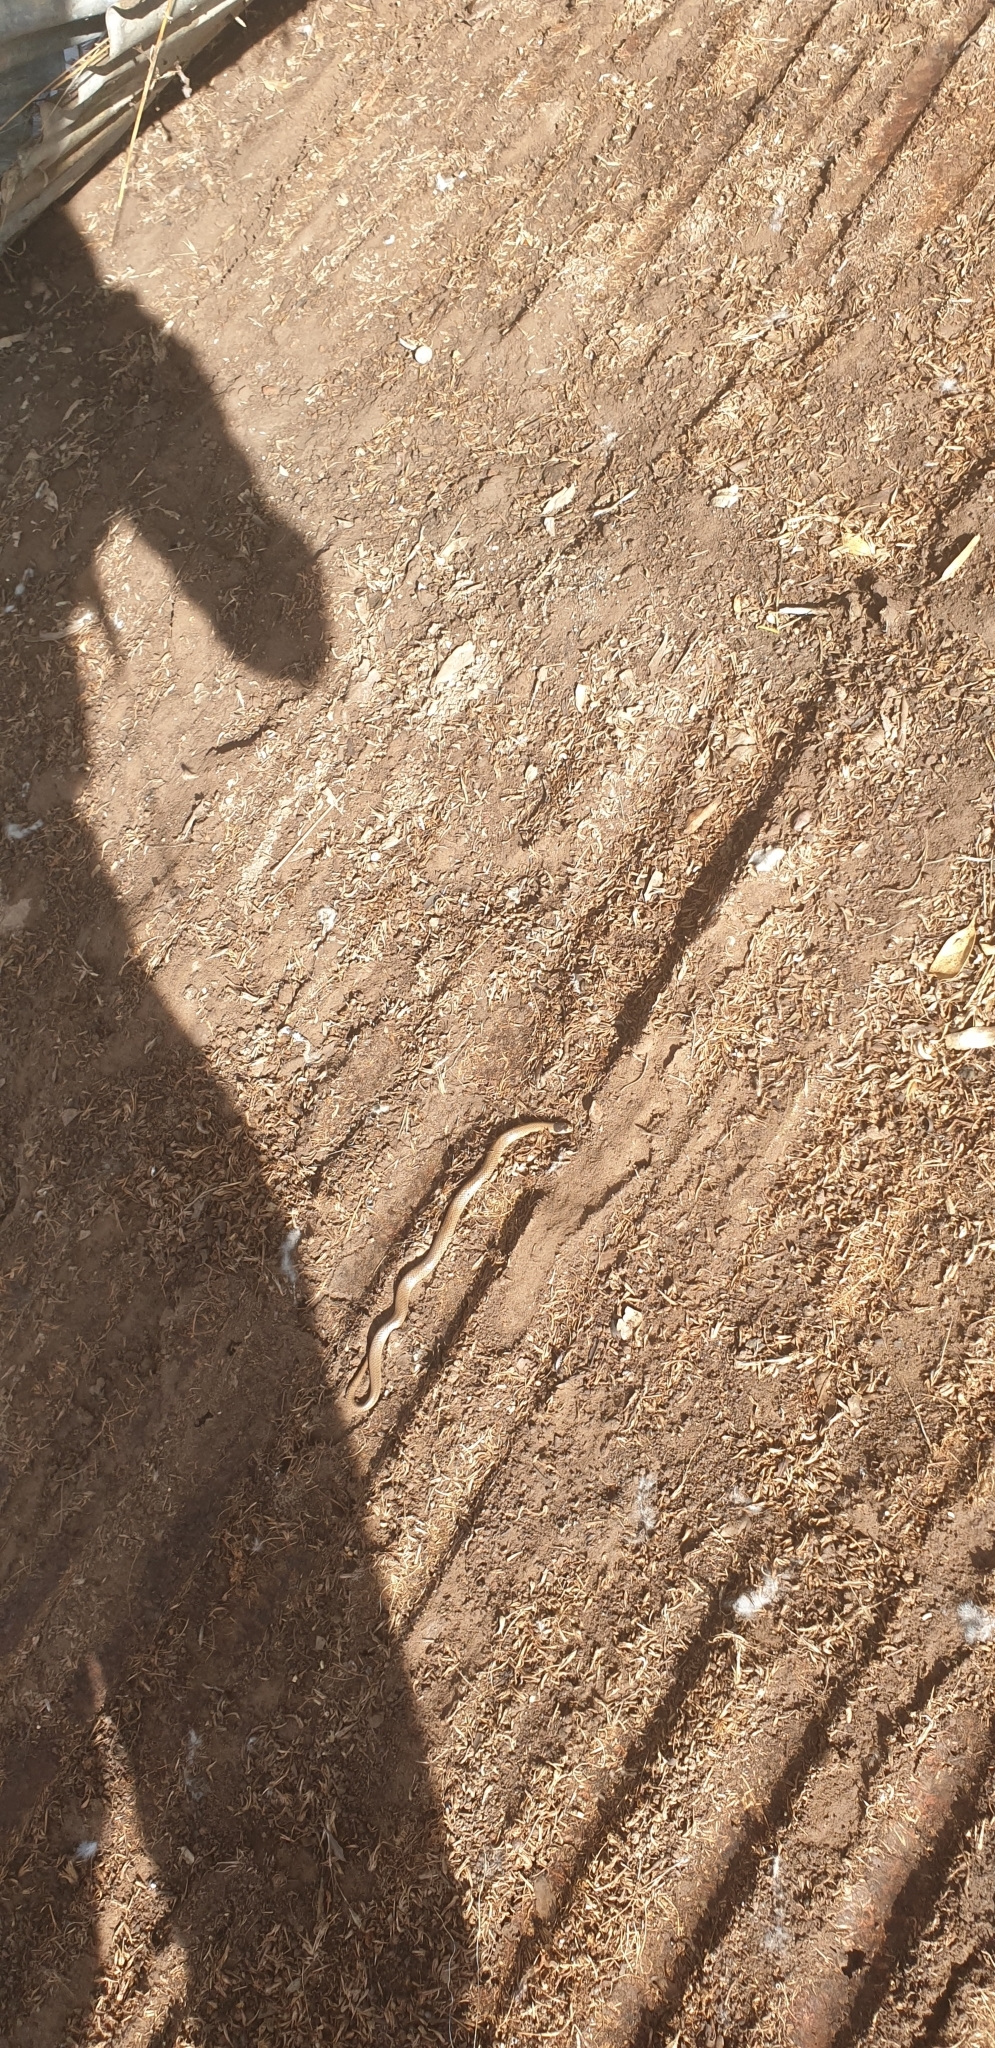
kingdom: Animalia
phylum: Chordata
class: Squamata
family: Elapidae
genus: Suta
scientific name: Suta flagellum
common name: Little whip snake
